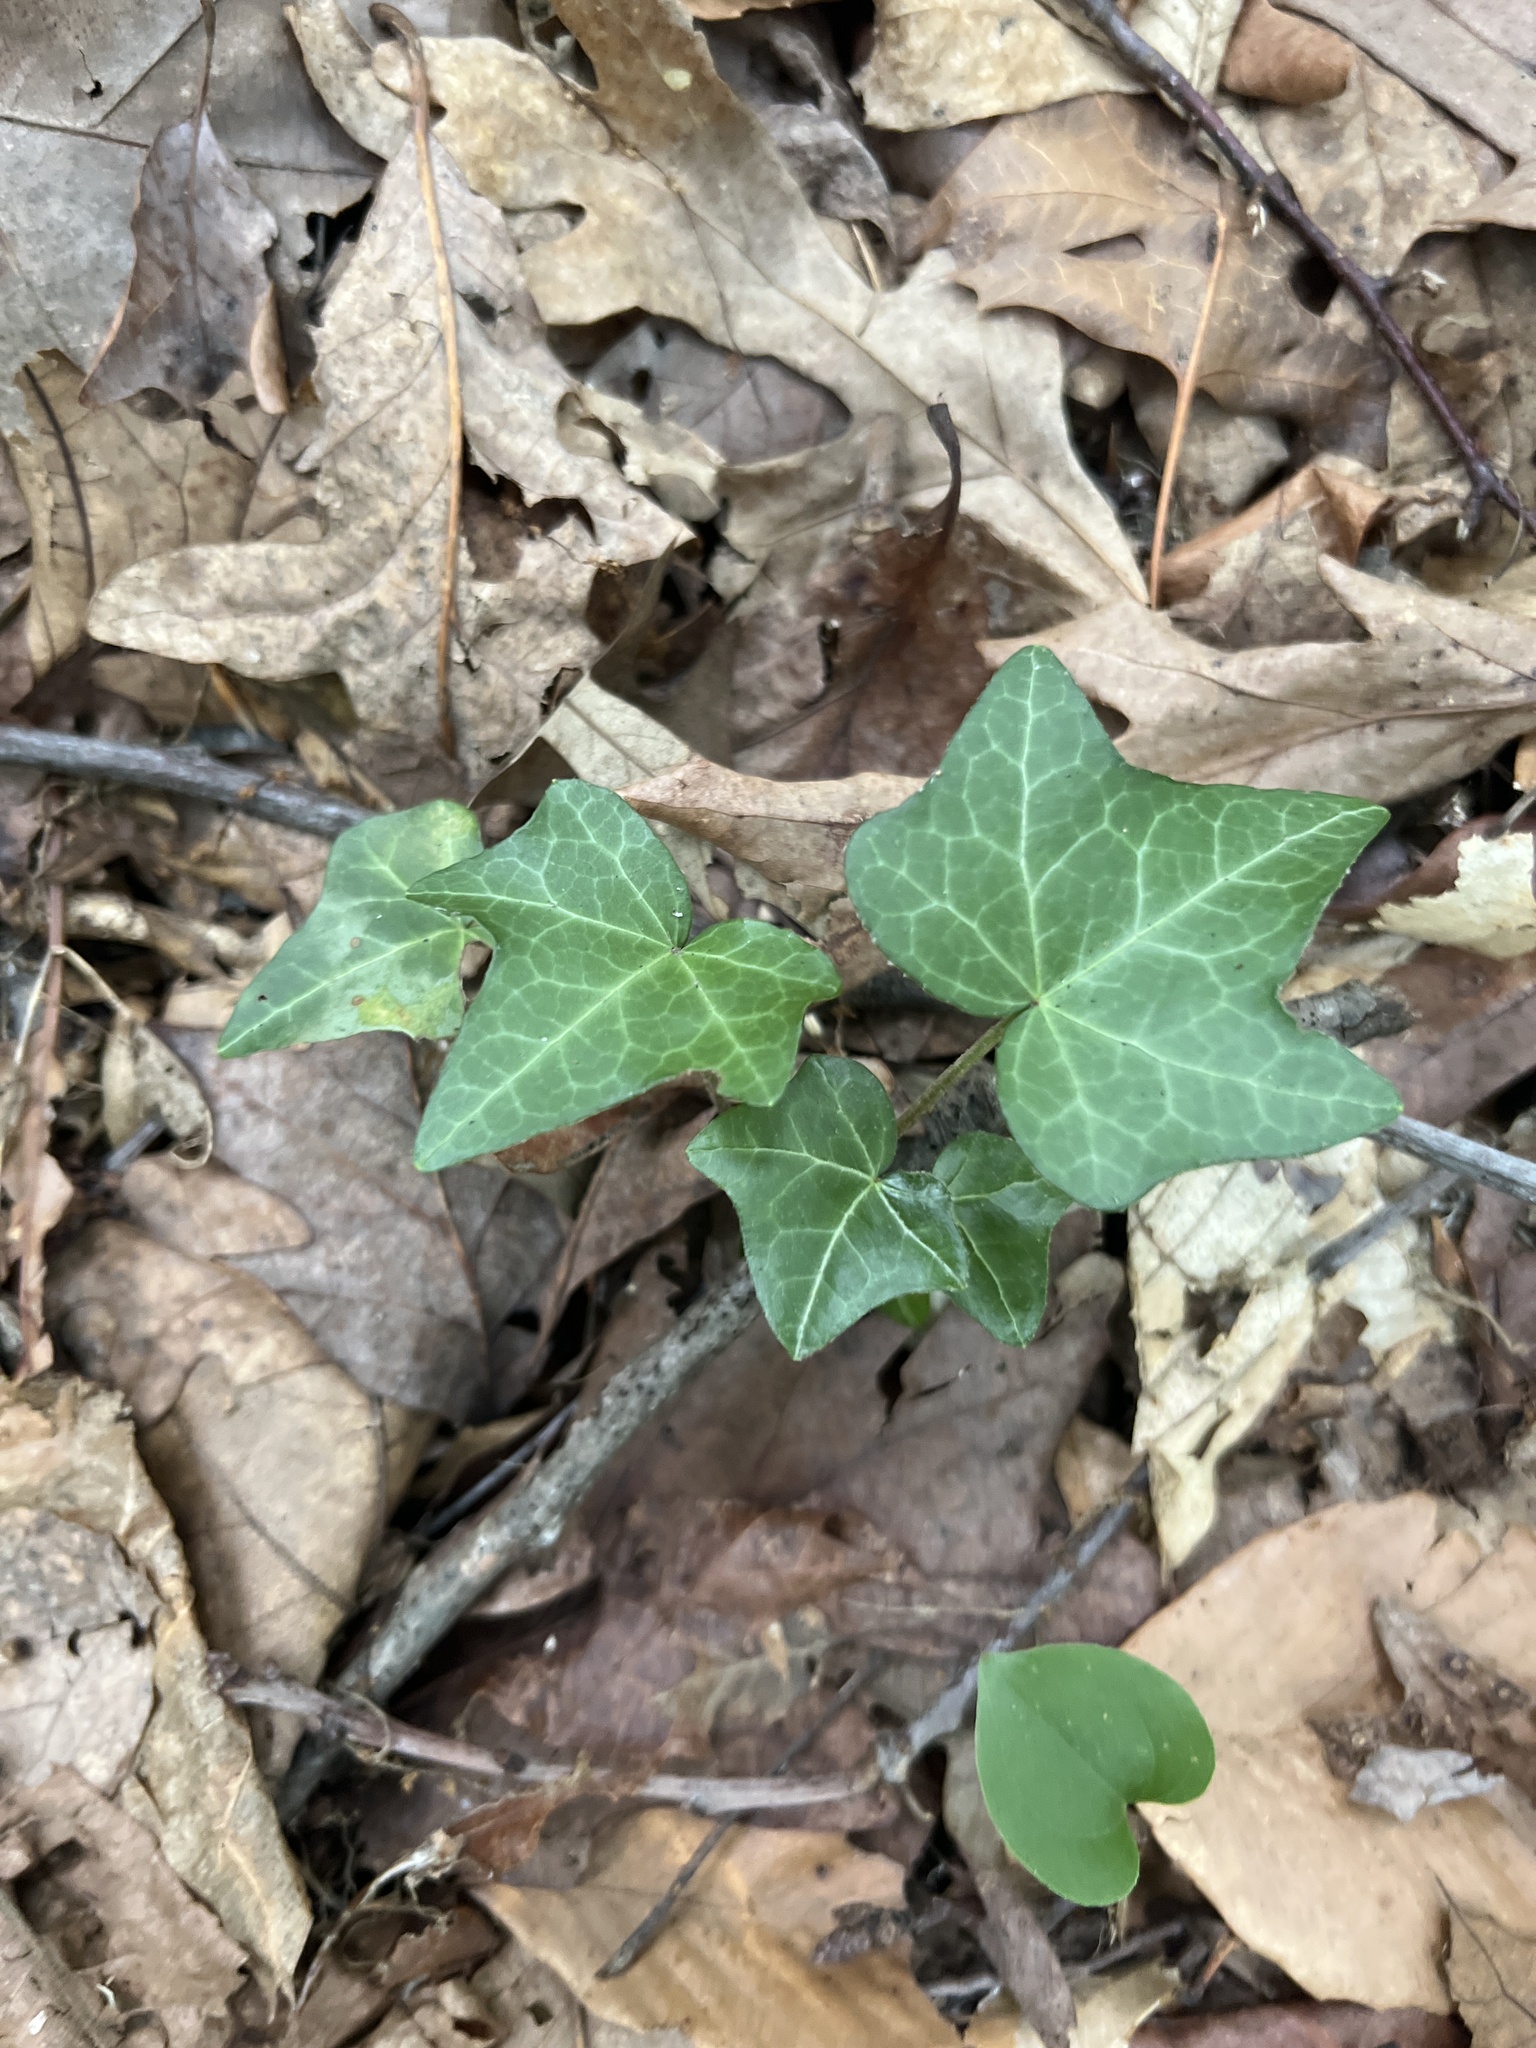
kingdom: Plantae
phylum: Tracheophyta
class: Magnoliopsida
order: Apiales
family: Araliaceae
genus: Hedera
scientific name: Hedera helix
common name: Ivy
